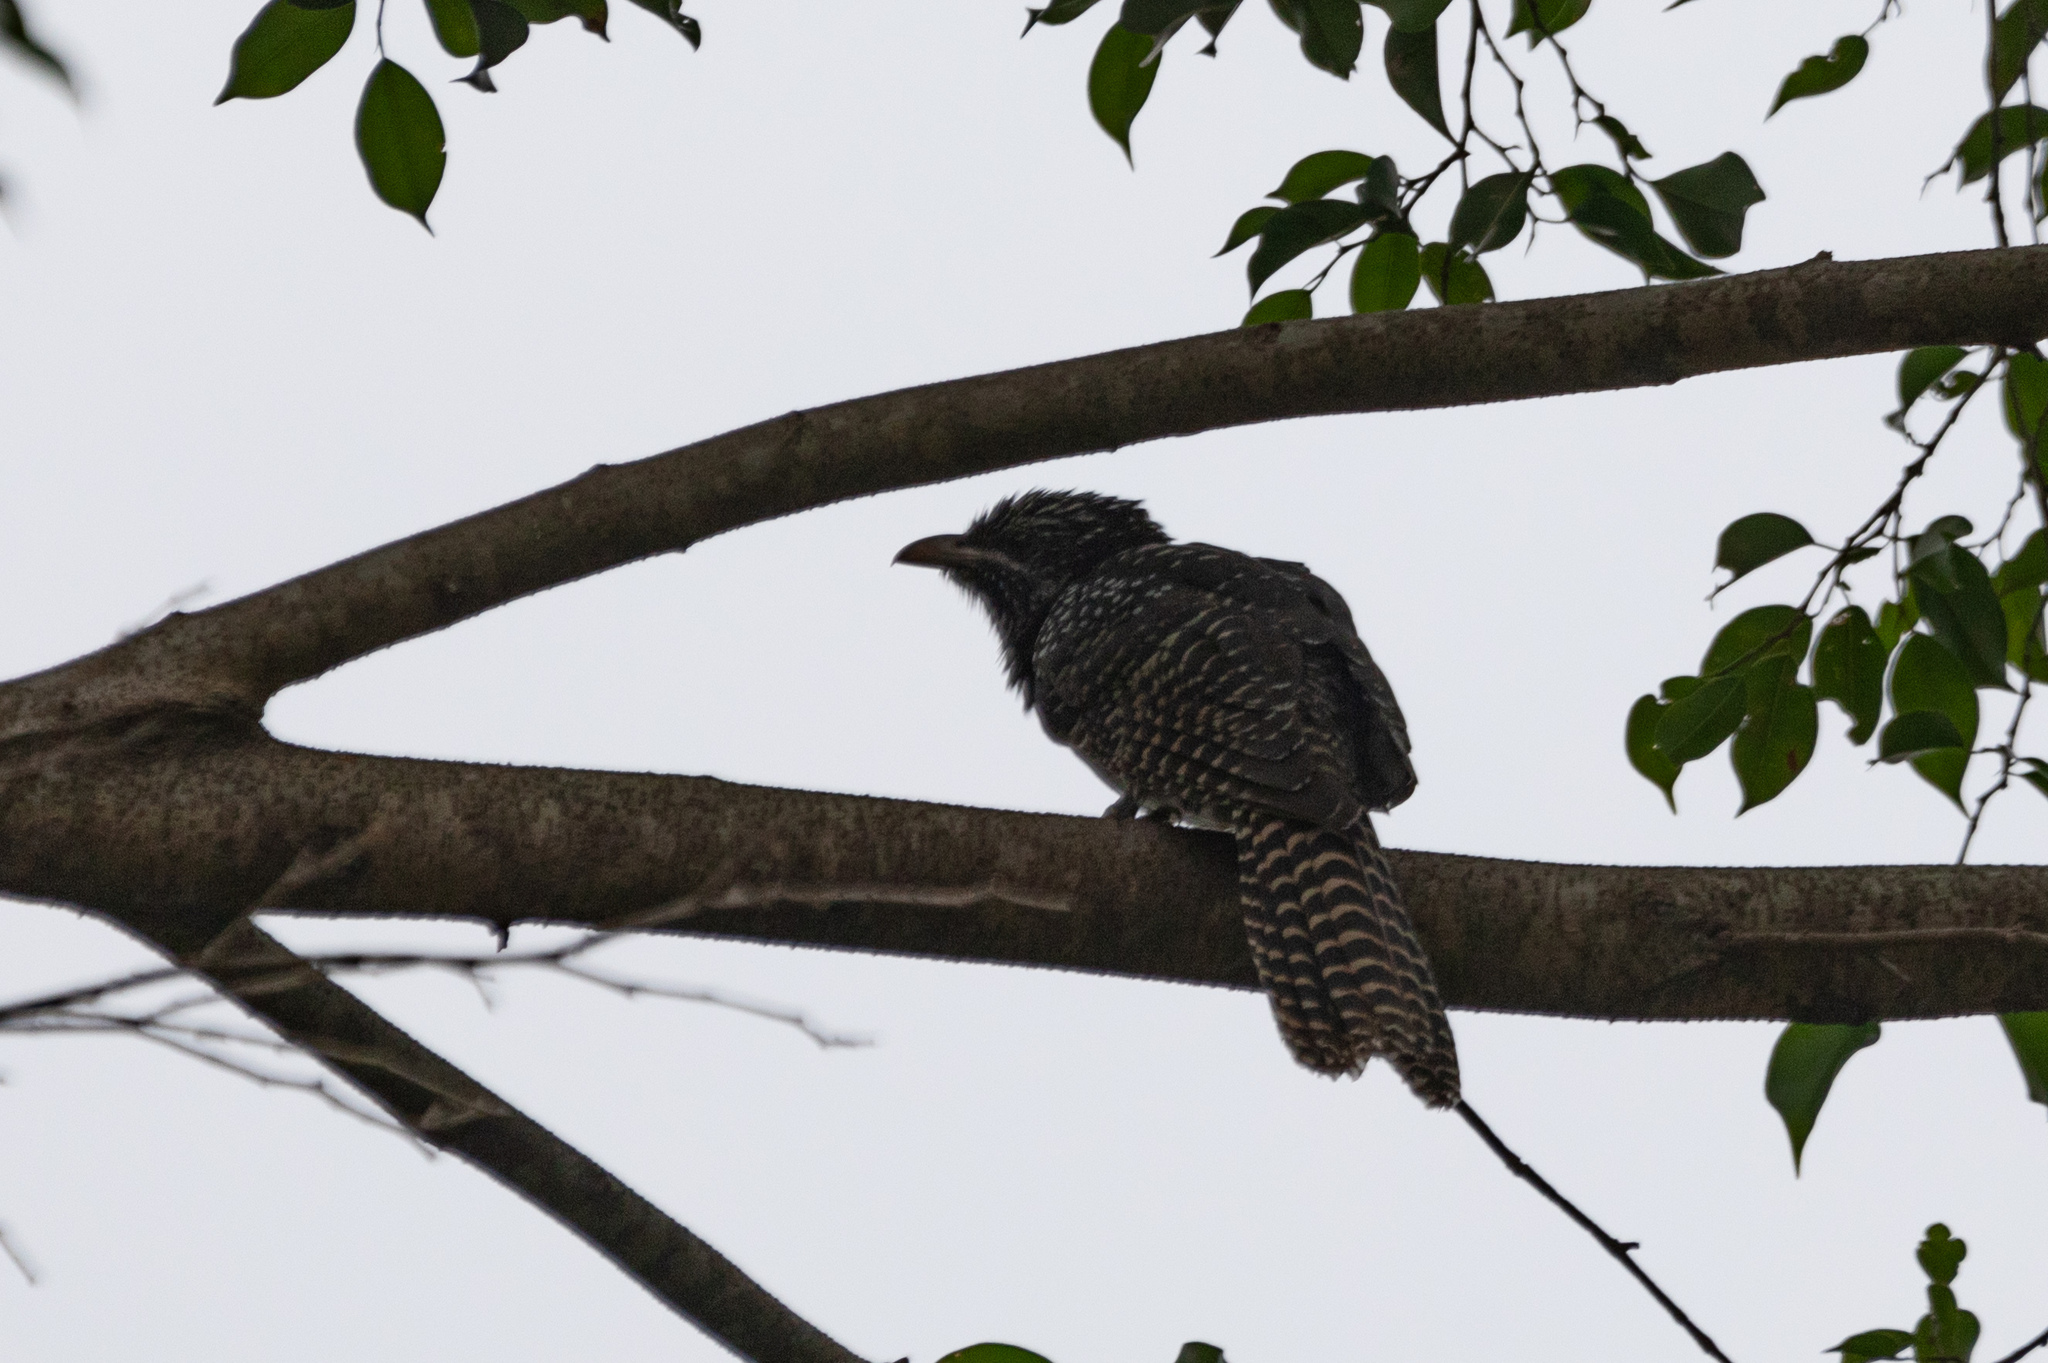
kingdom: Animalia
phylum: Chordata
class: Aves
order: Cuculiformes
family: Cuculidae
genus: Eudynamys
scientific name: Eudynamys scolopaceus
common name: Asian koel
